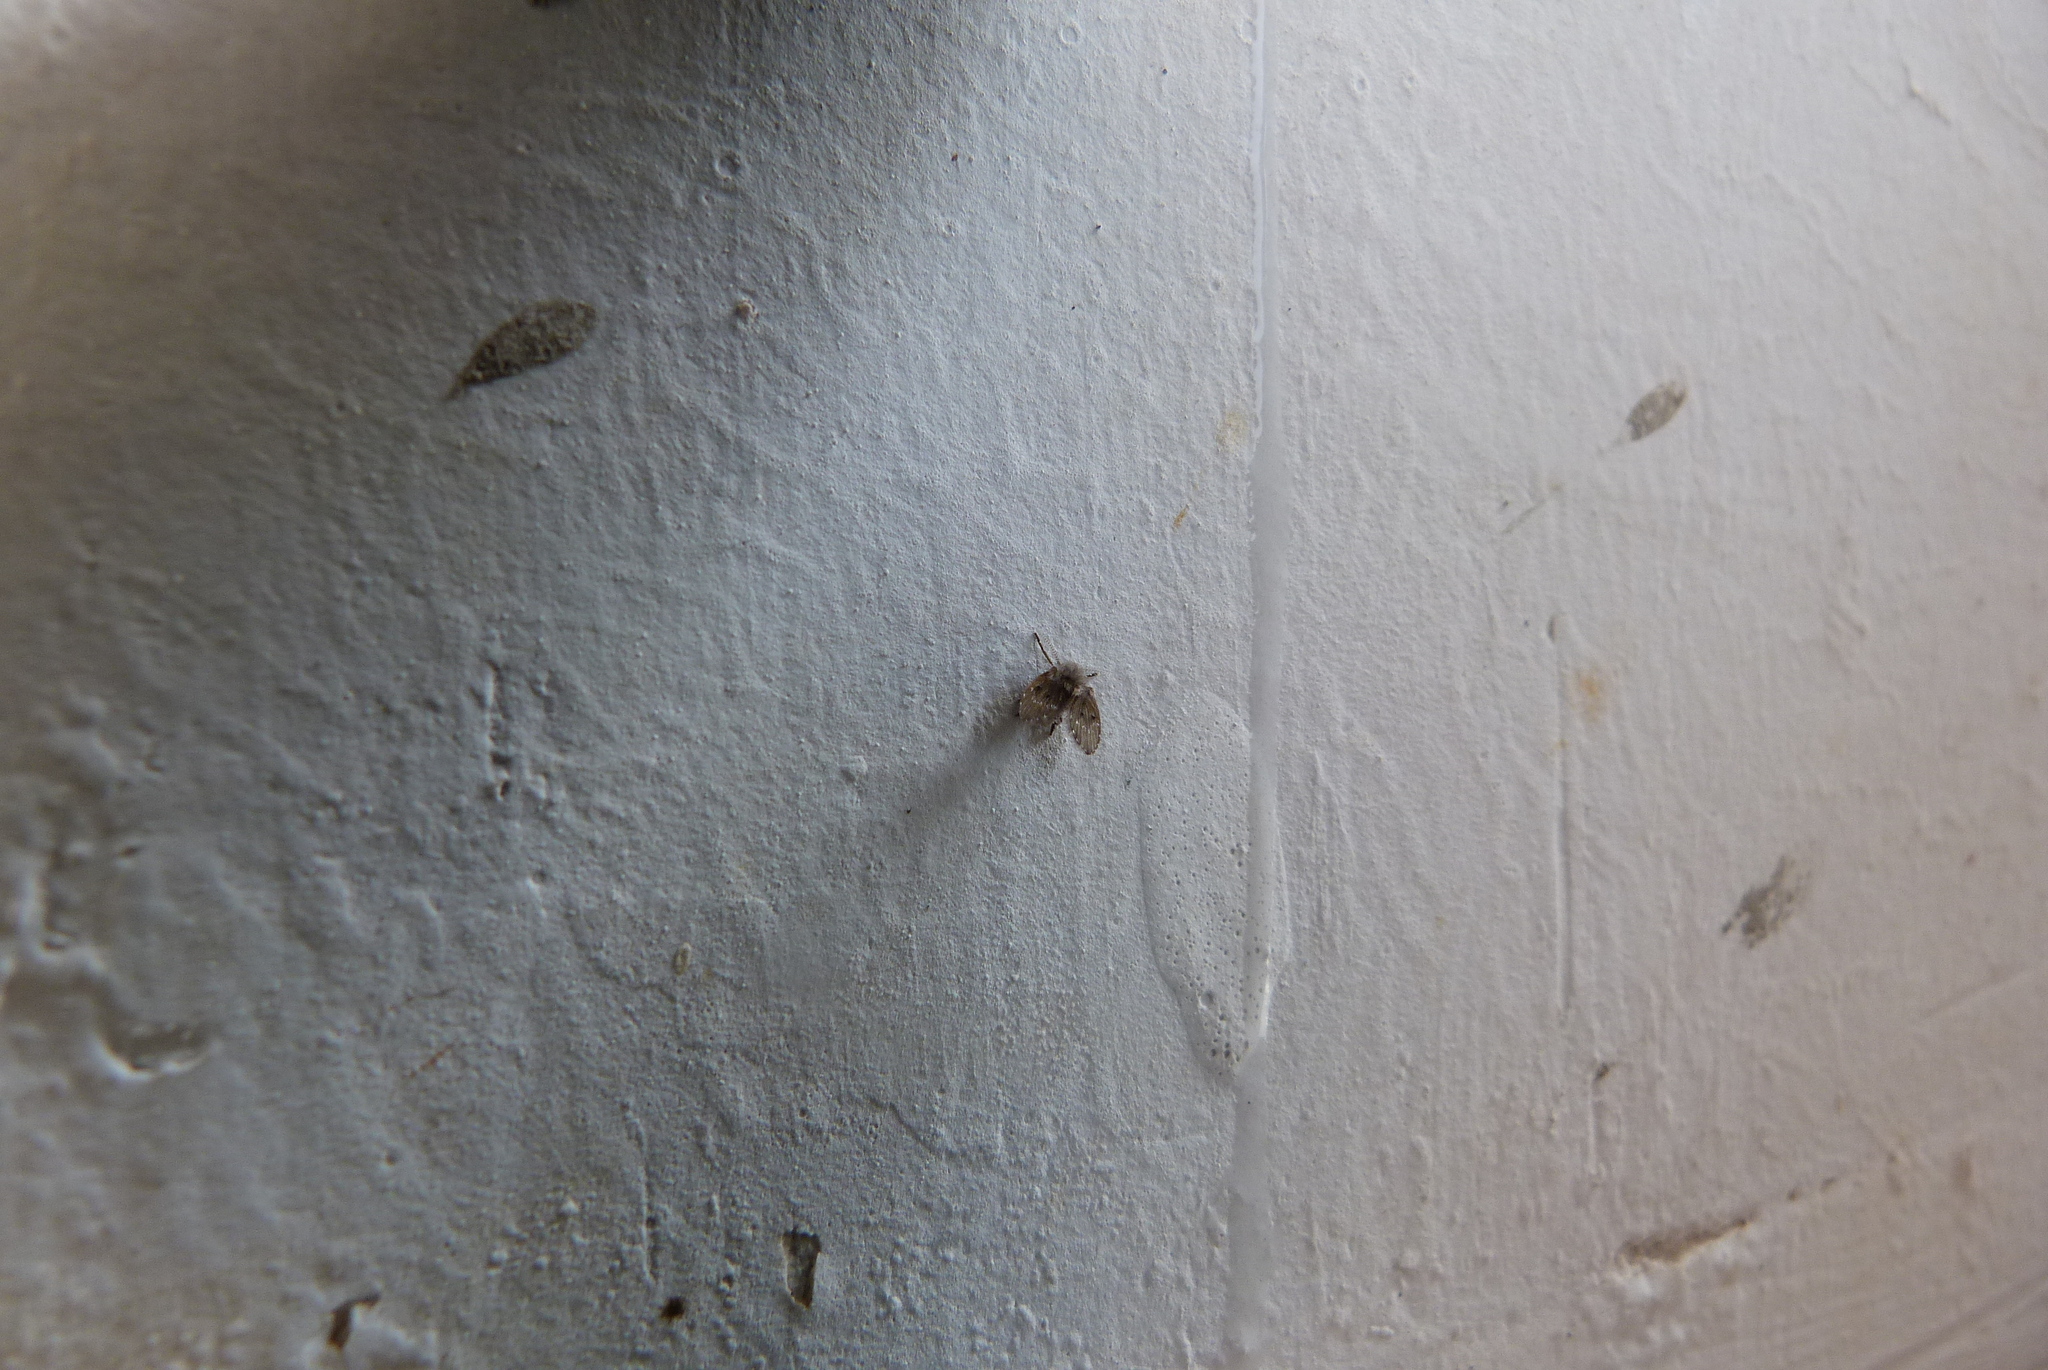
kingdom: Animalia
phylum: Arthropoda
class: Insecta
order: Diptera
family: Psychodidae
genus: Clogmia
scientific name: Clogmia albipunctatus
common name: White-spotted moth fly
